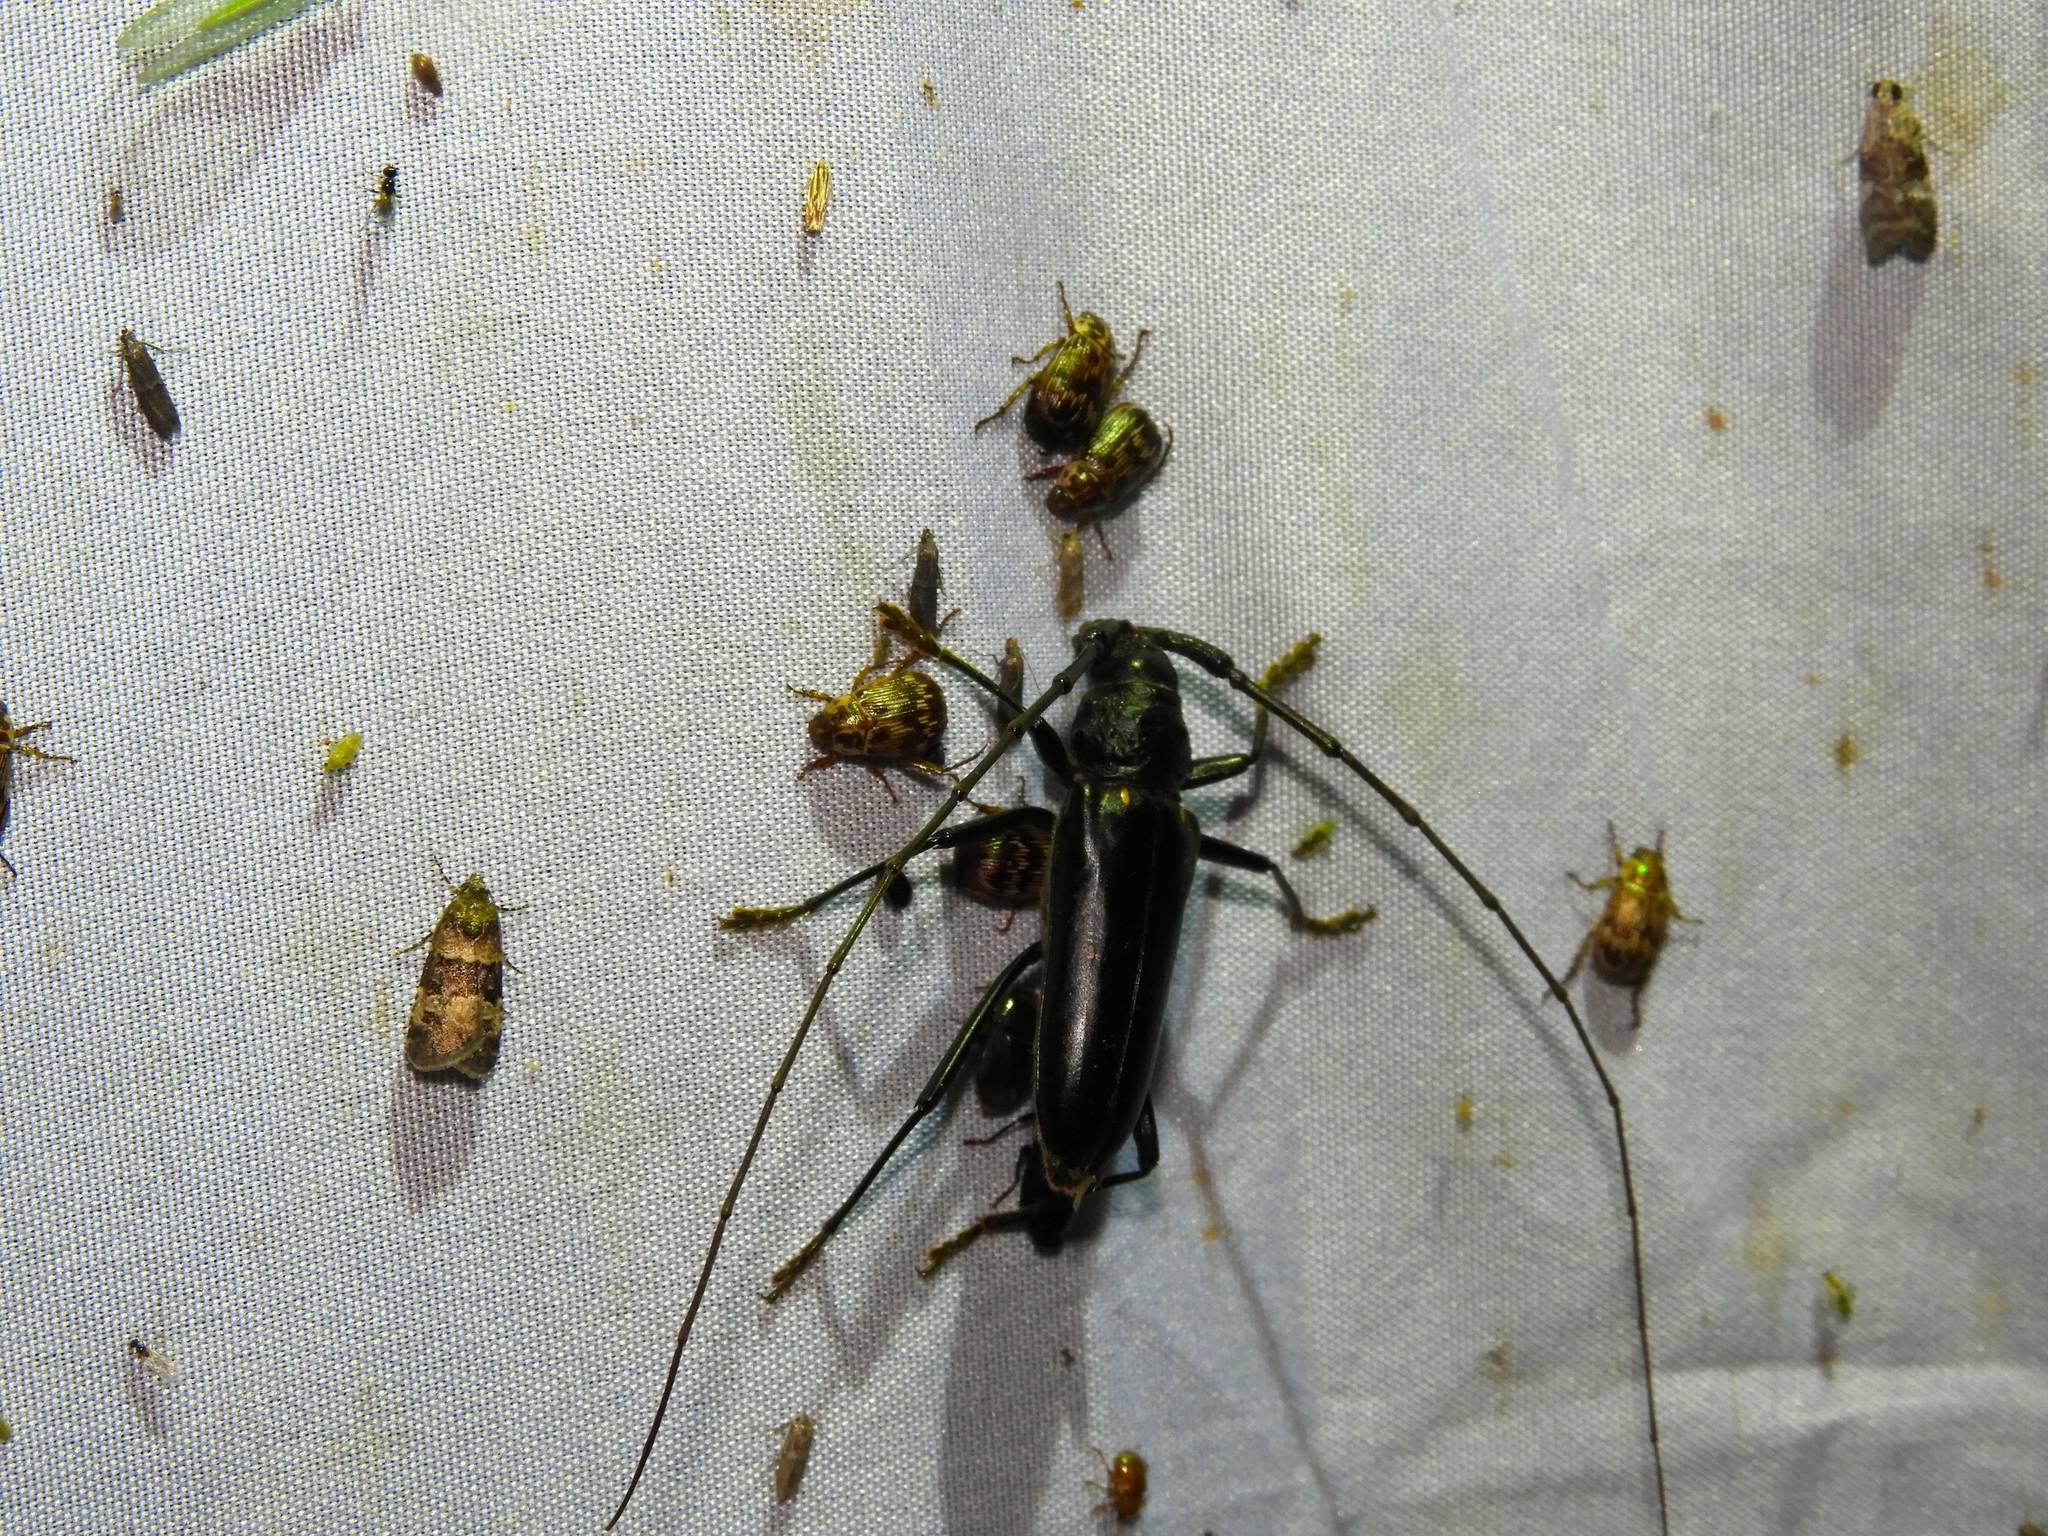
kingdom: Animalia
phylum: Arthropoda
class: Insecta
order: Coleoptera
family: Cerambycidae
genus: Susuacanga
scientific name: Susuacanga ulkei
